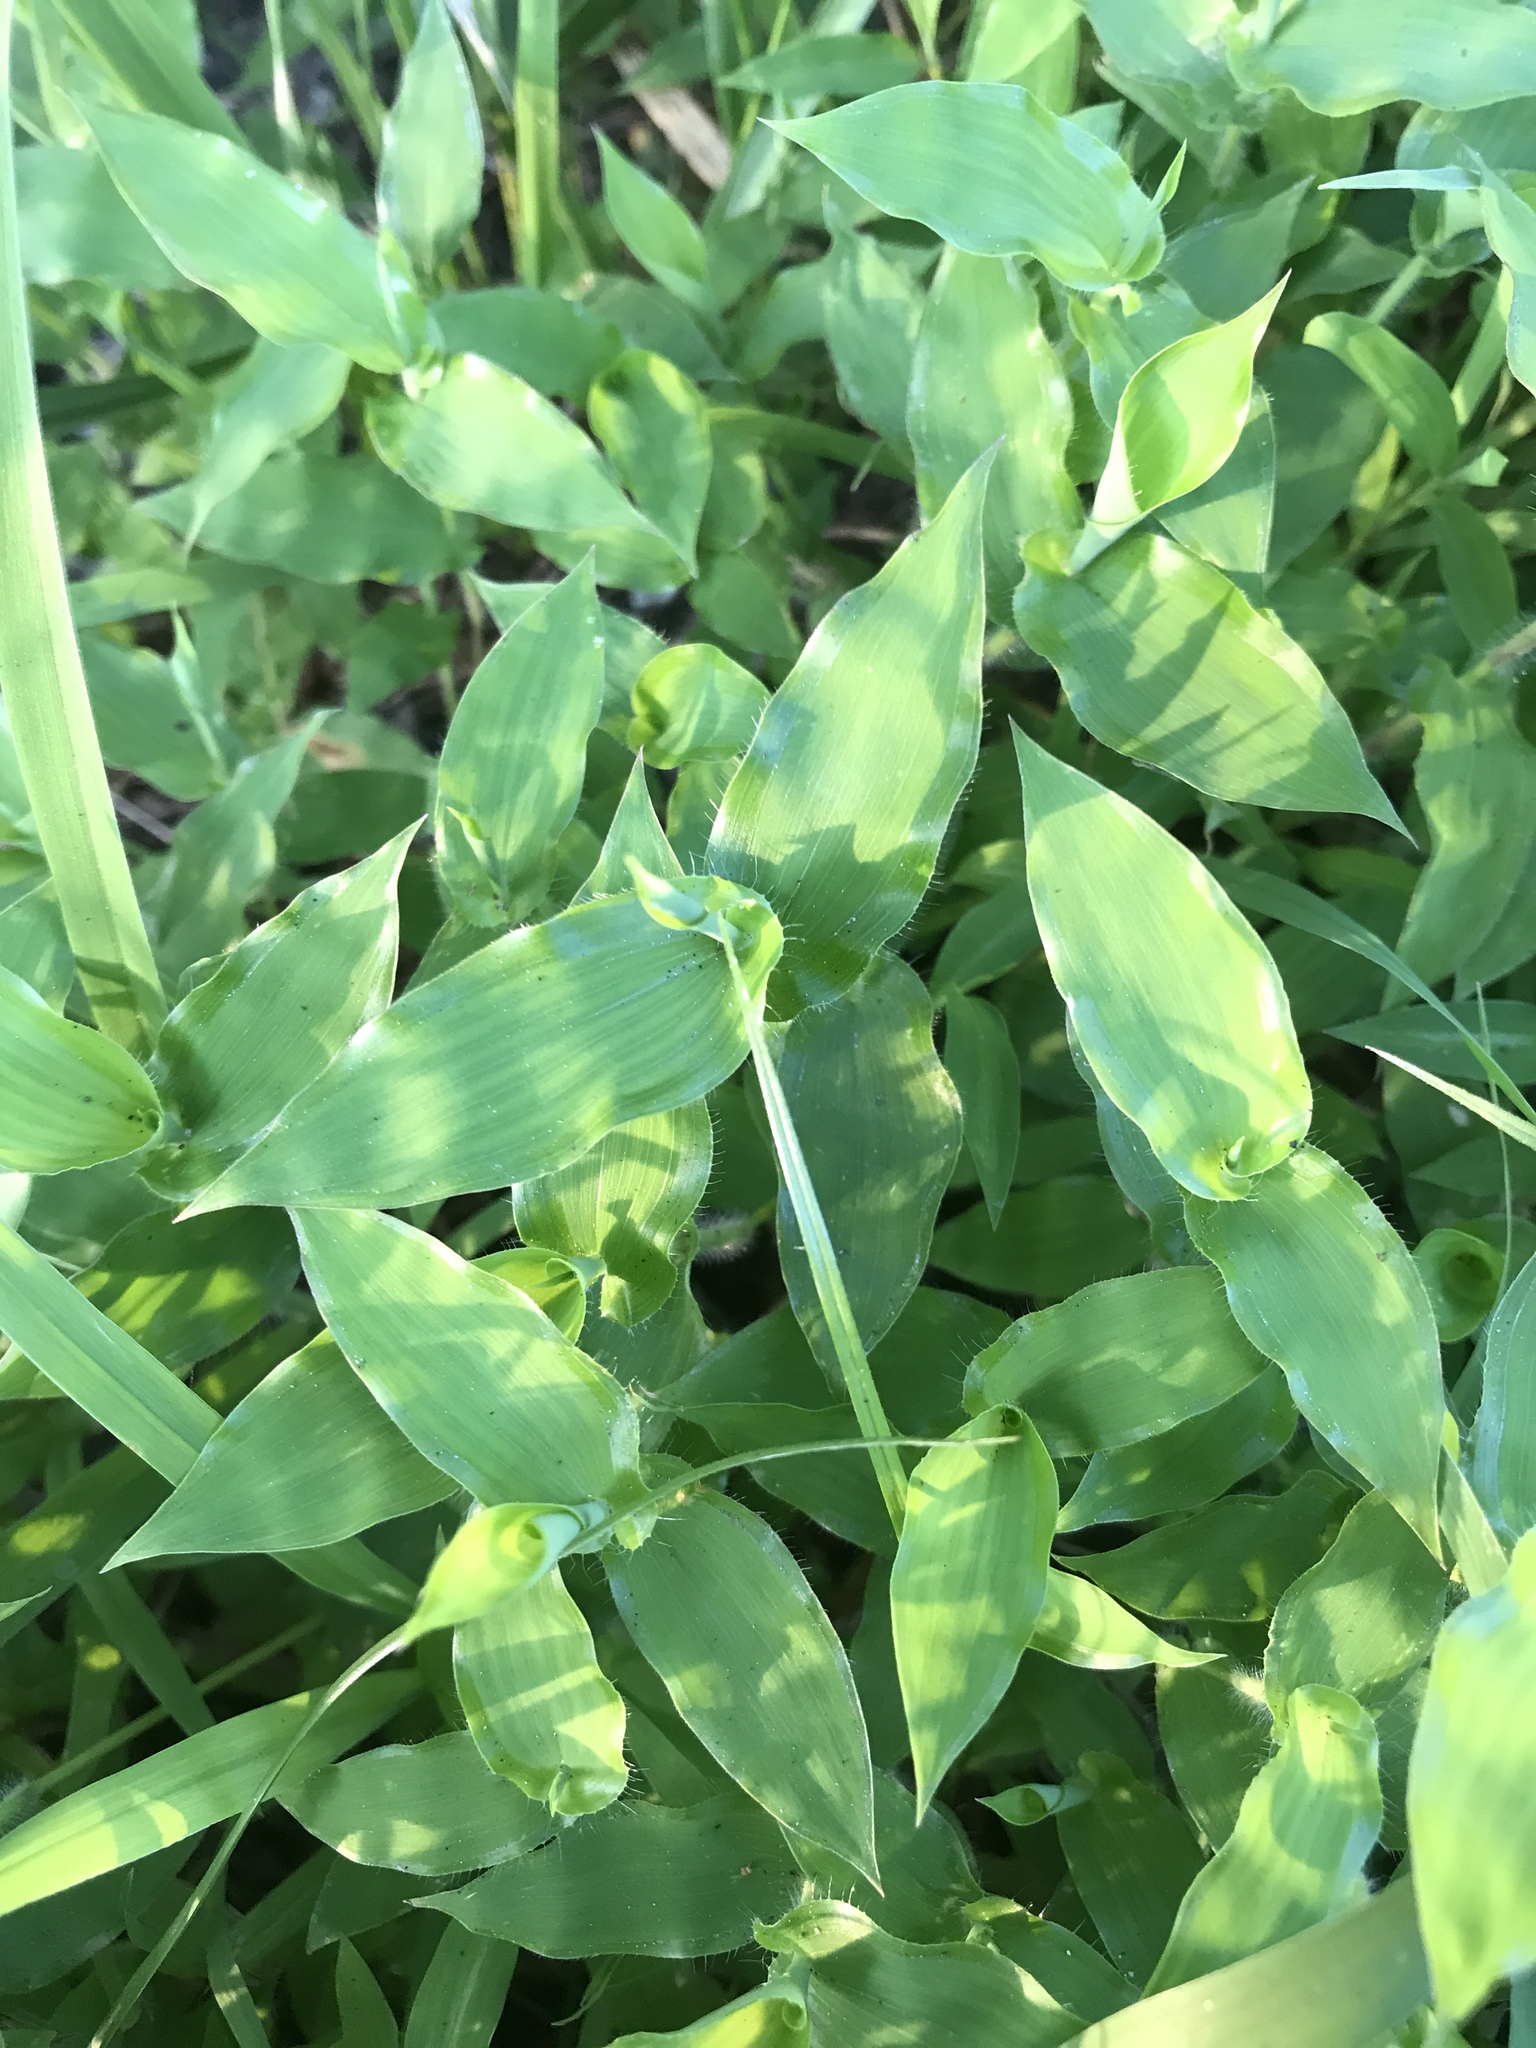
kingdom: Plantae
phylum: Tracheophyta
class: Liliopsida
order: Poales
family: Poaceae
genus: Arthraxon
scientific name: Arthraxon hispidus
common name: Small carpgrass
